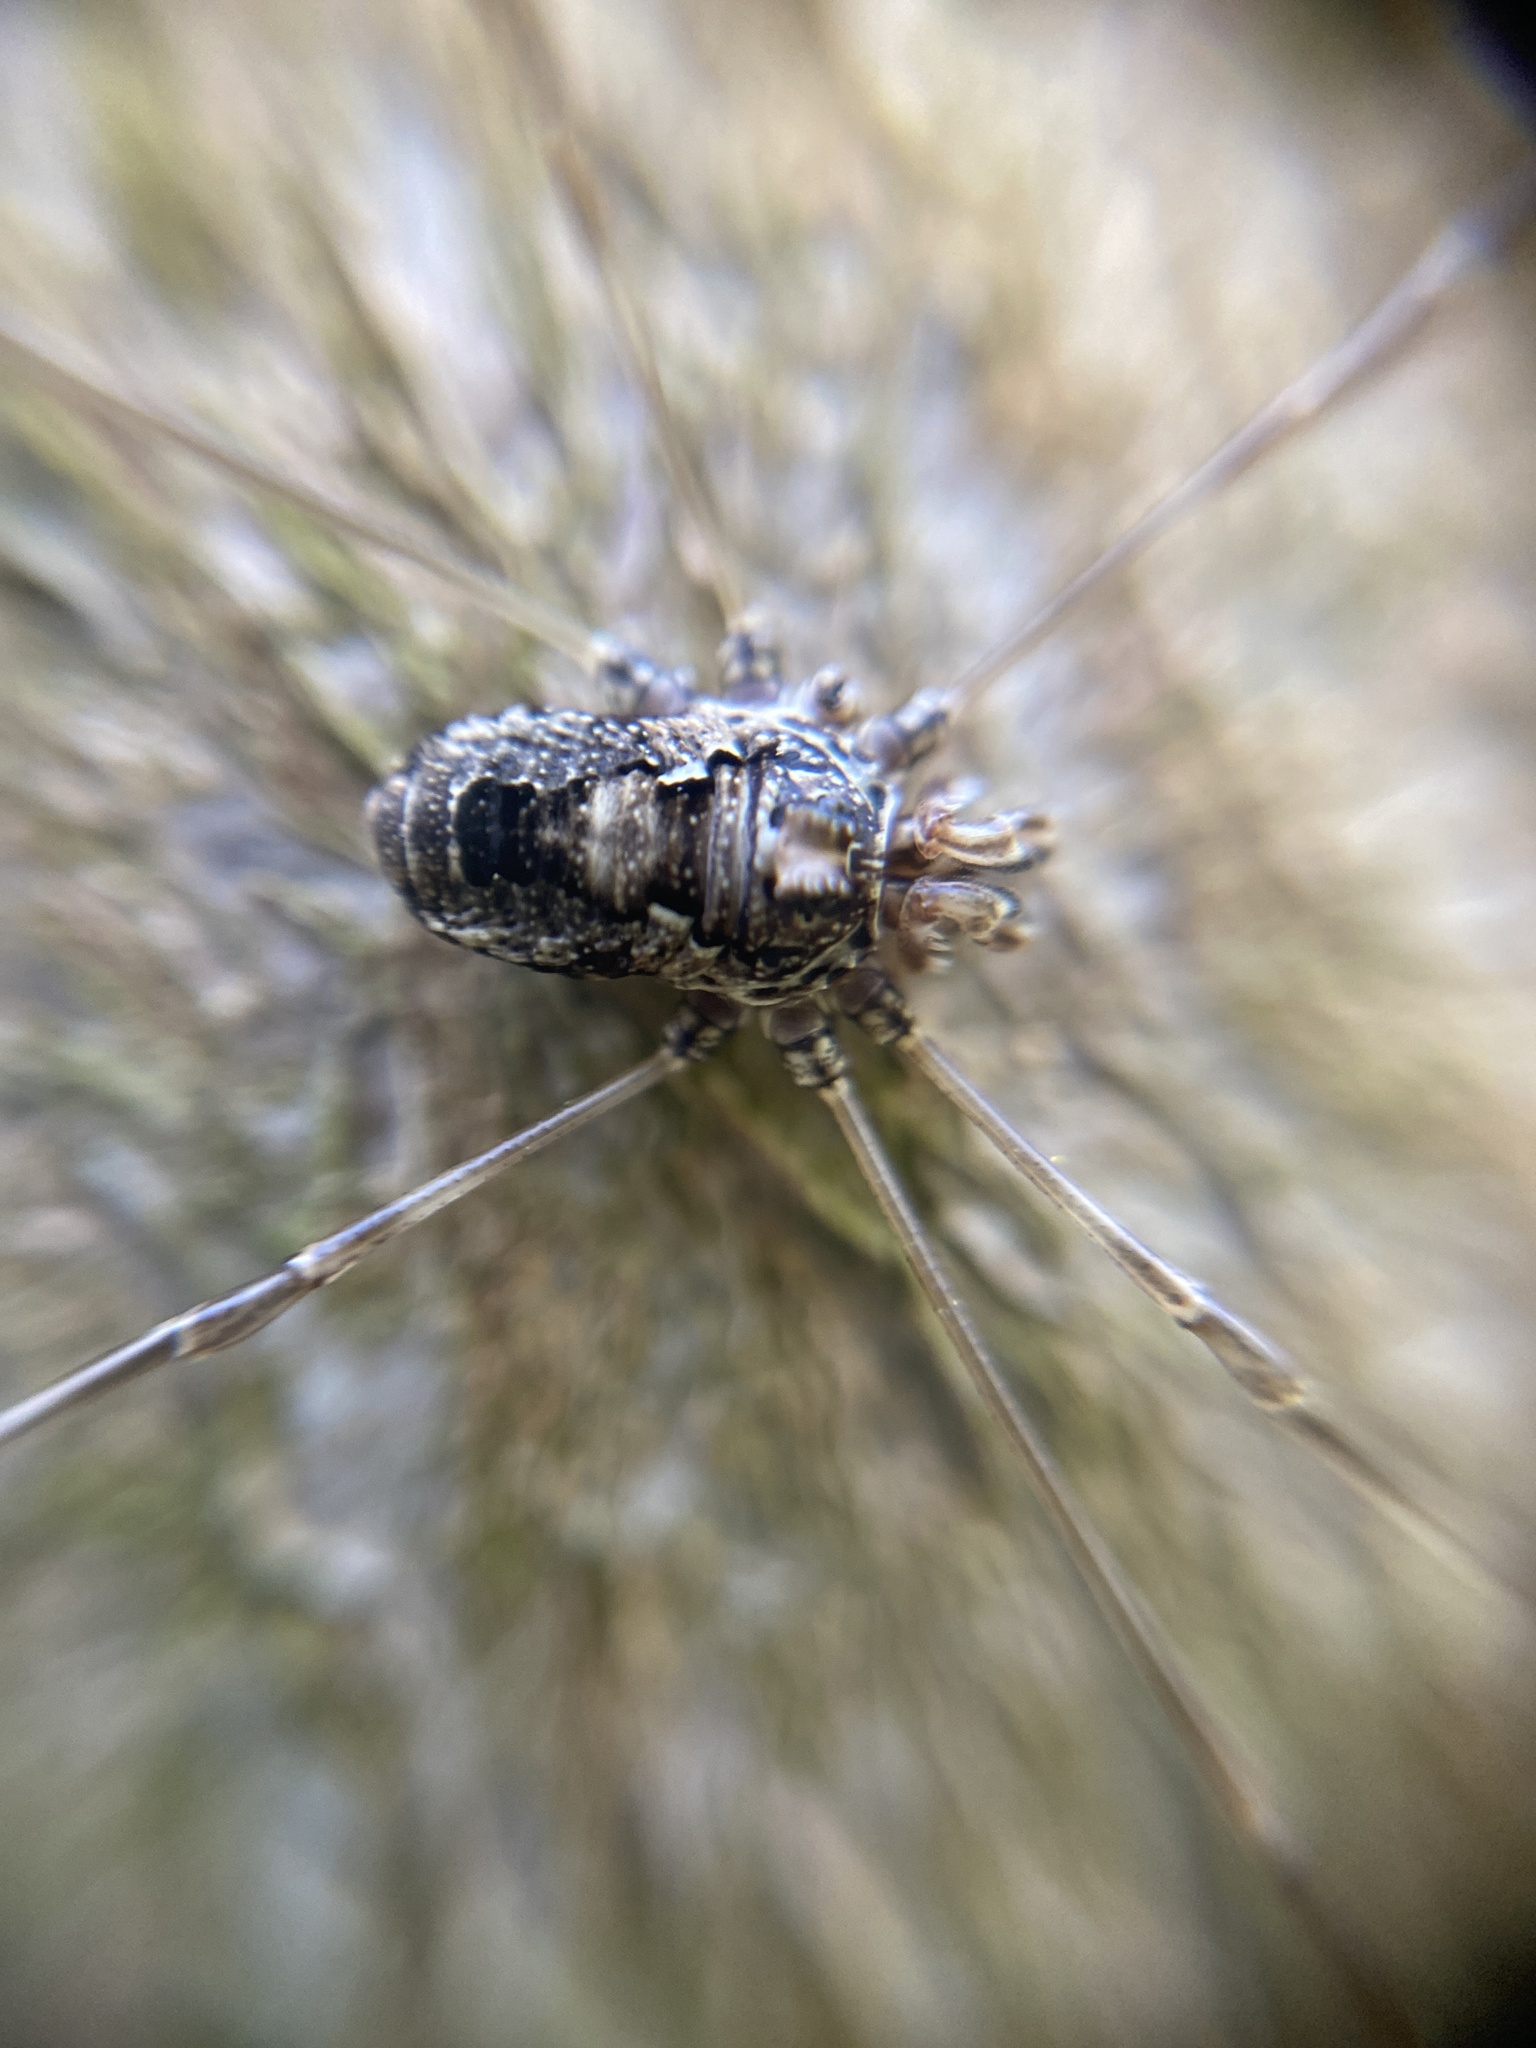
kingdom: Animalia
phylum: Arthropoda
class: Arachnida
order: Opiliones
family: Phalangiidae
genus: Platybunus
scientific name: Platybunus pinetorum
